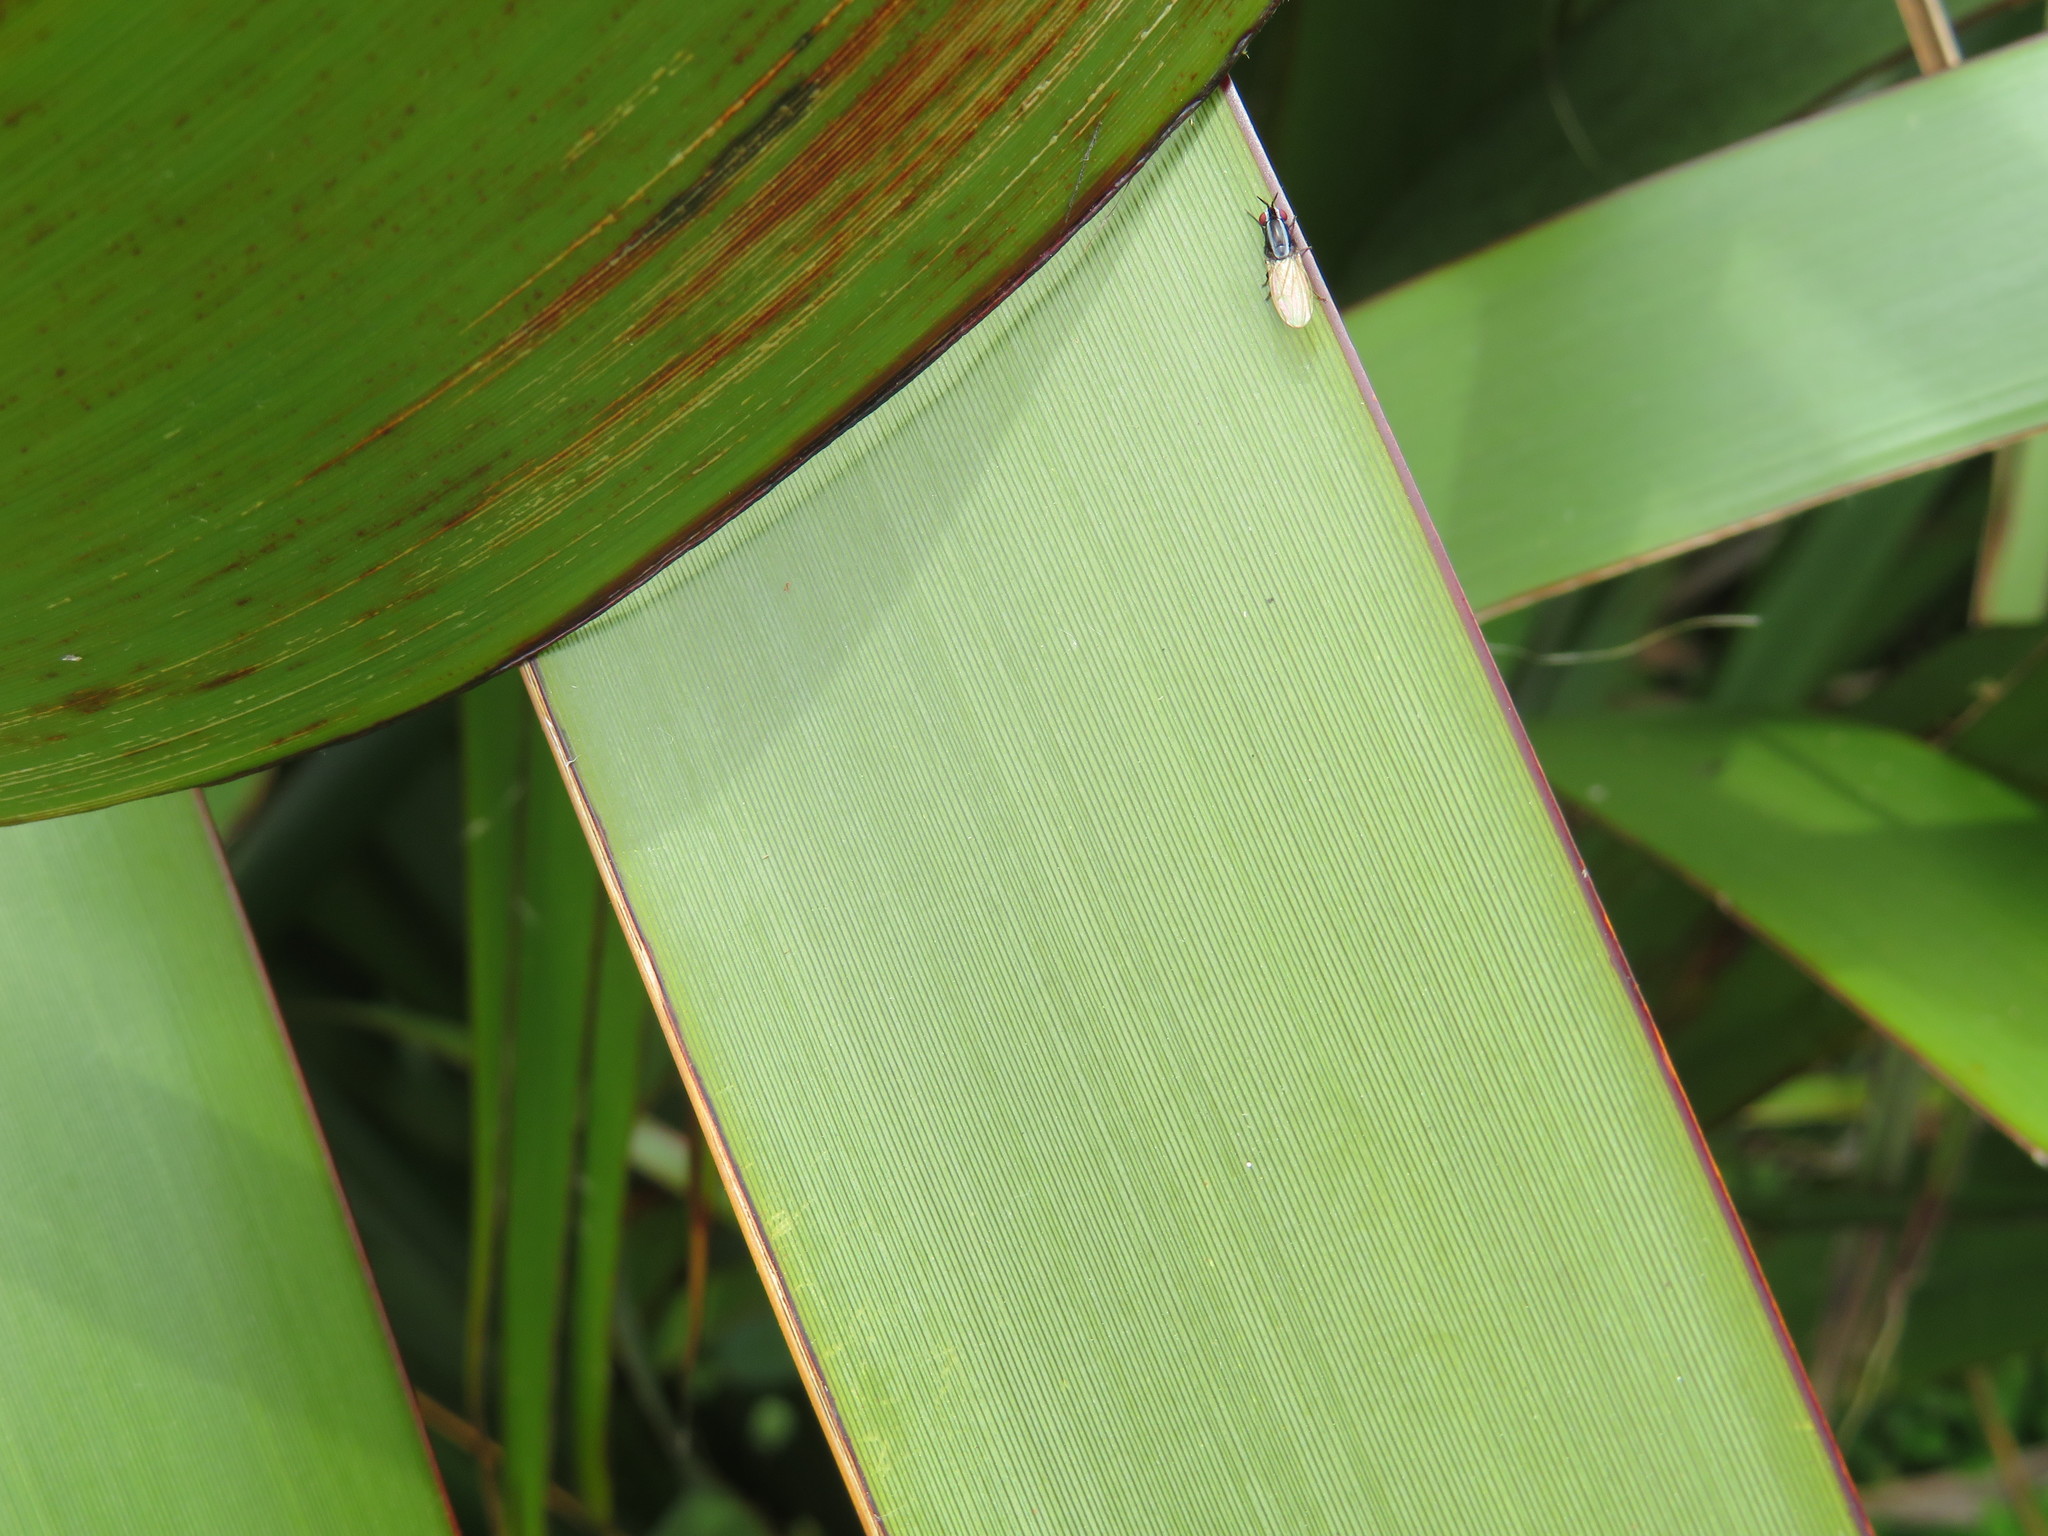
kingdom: Animalia
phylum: Arthropoda
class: Insecta
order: Diptera
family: Lauxaniidae
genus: Poecilohetaerella
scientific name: Poecilohetaerella bilineata
